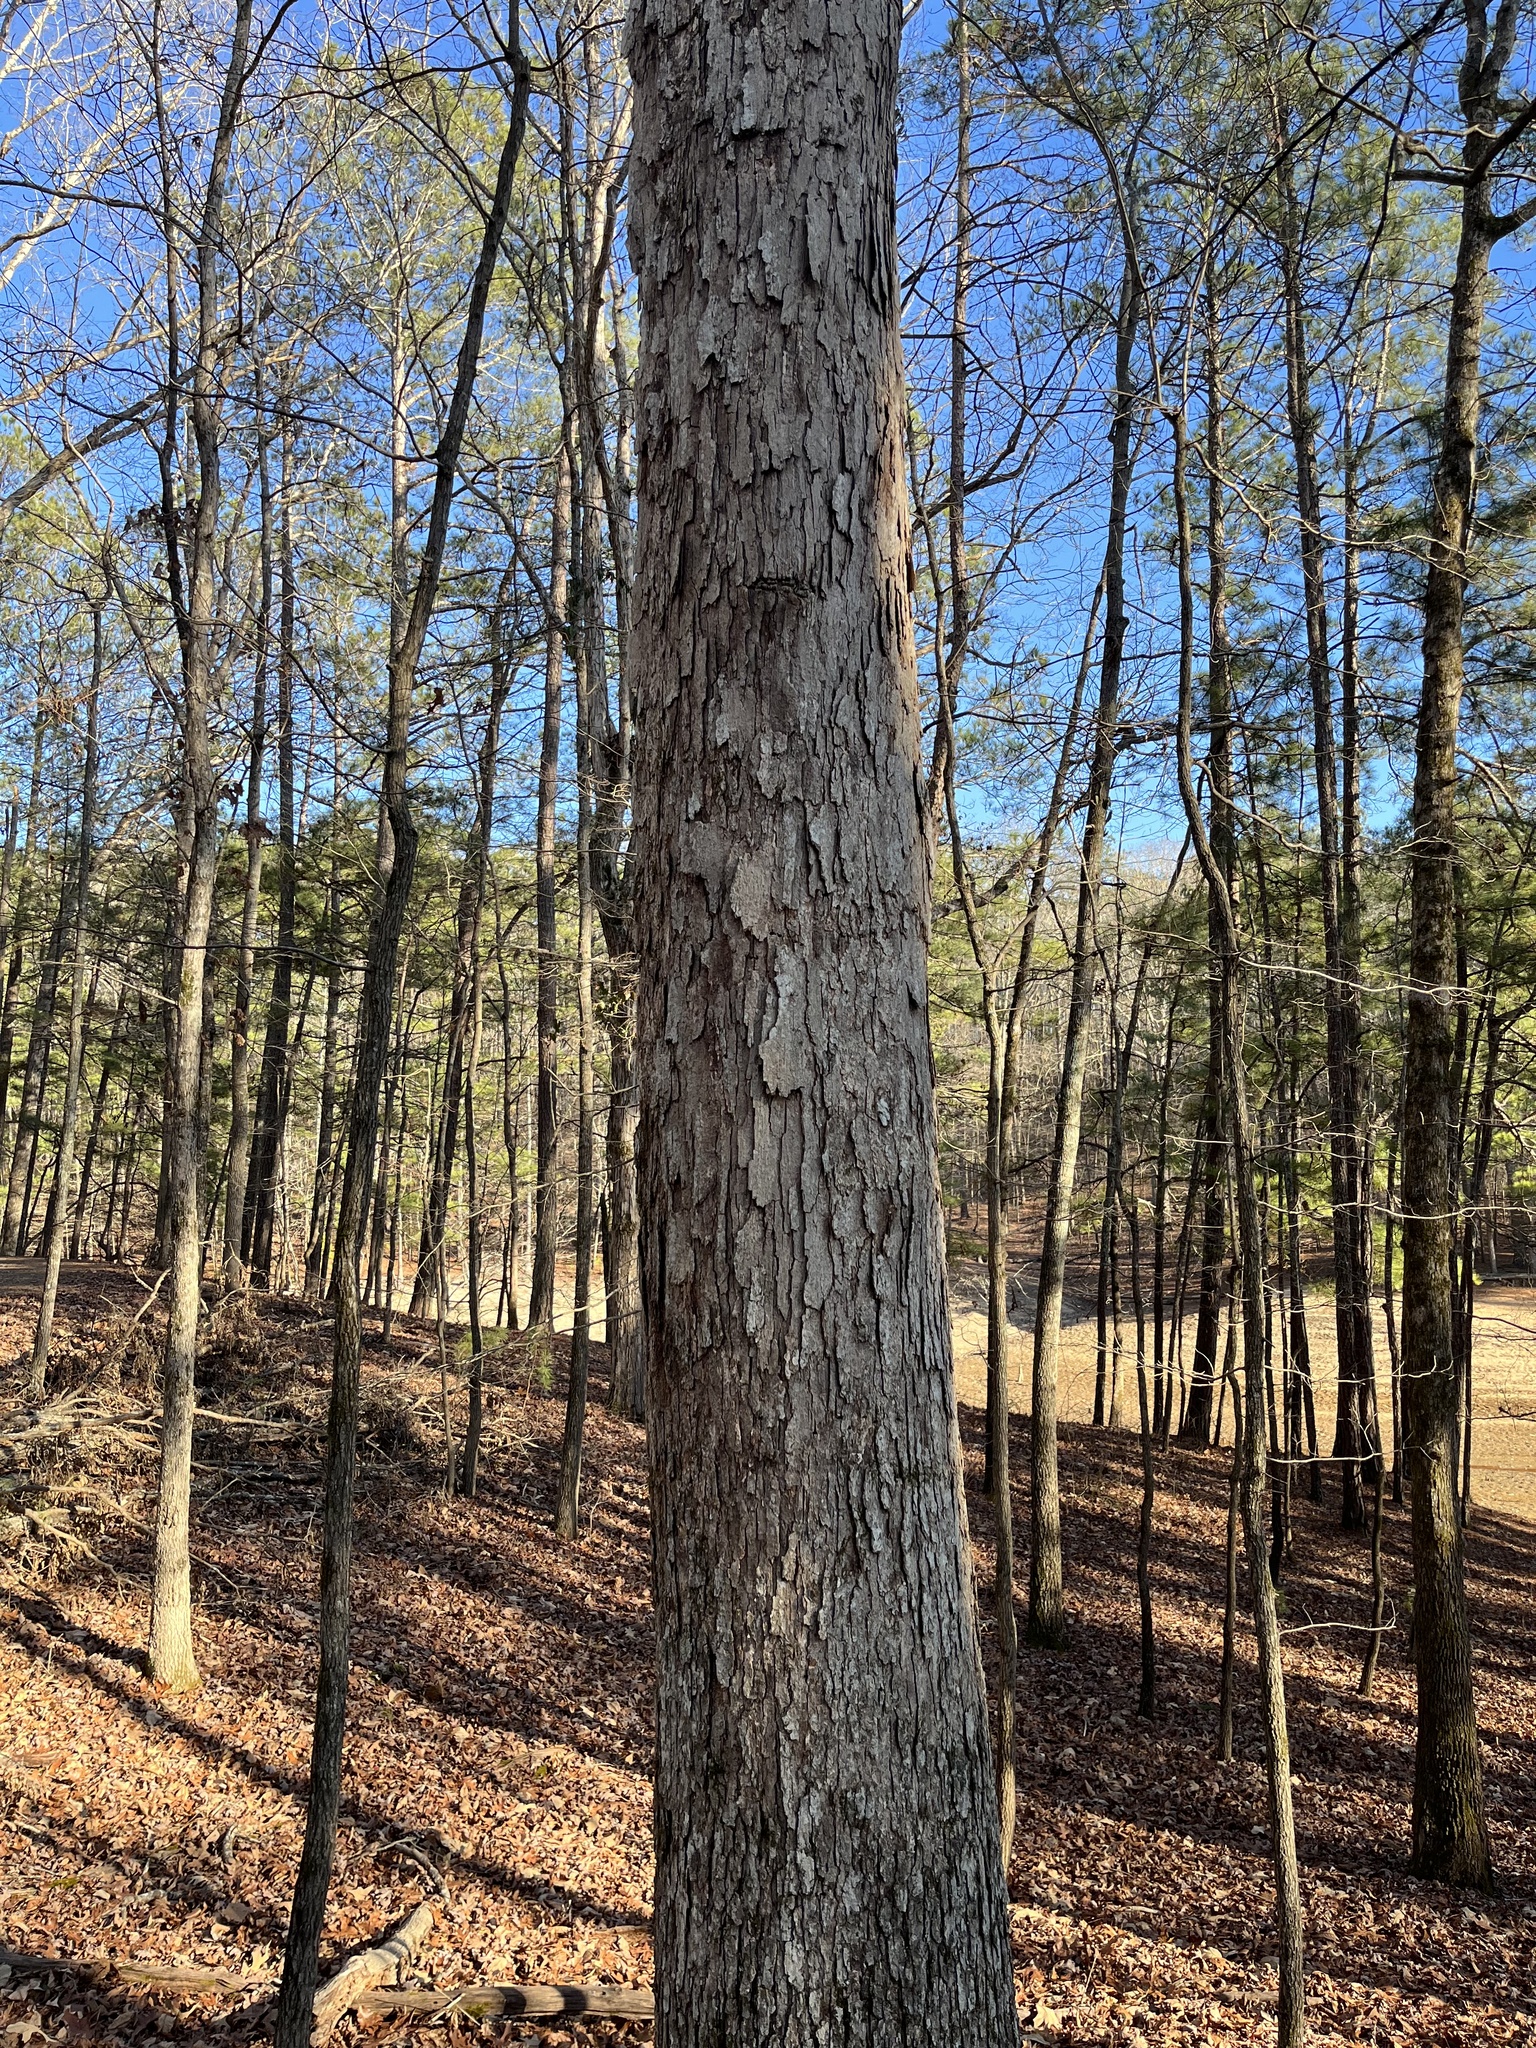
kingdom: Plantae
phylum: Tracheophyta
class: Magnoliopsida
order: Fagales
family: Fagaceae
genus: Quercus
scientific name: Quercus alba
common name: White oak
